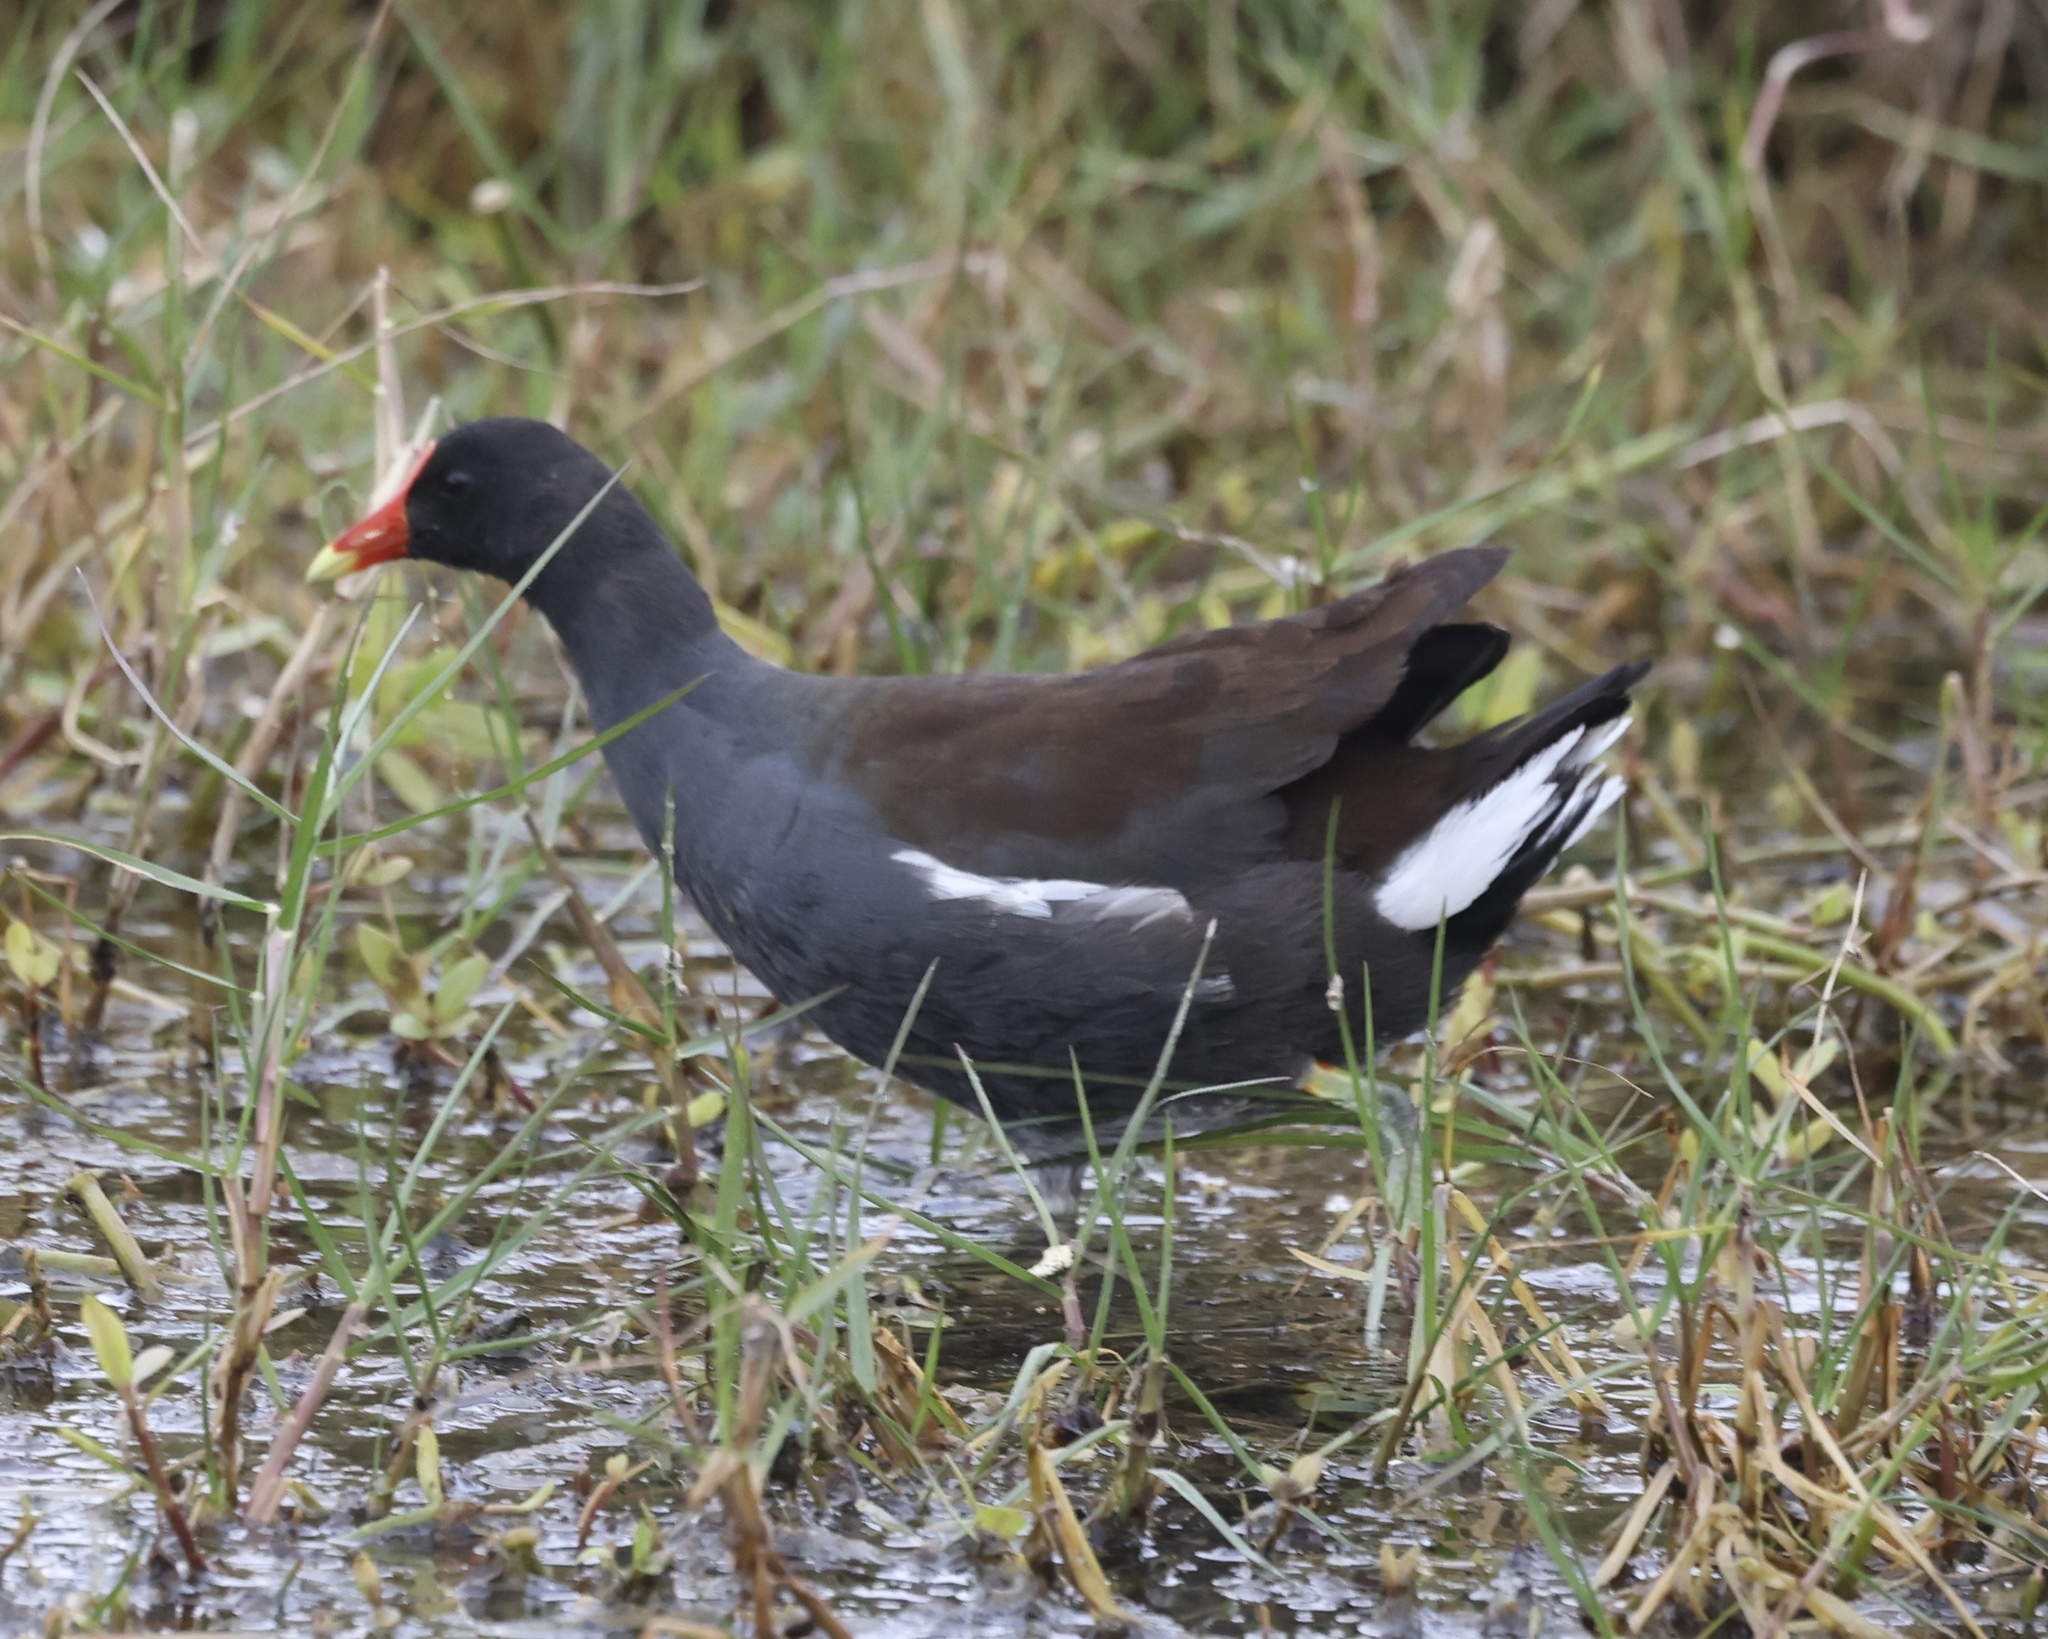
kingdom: Animalia
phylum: Chordata
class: Aves
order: Gruiformes
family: Rallidae
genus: Gallinula
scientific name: Gallinula chloropus
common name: Common moorhen
